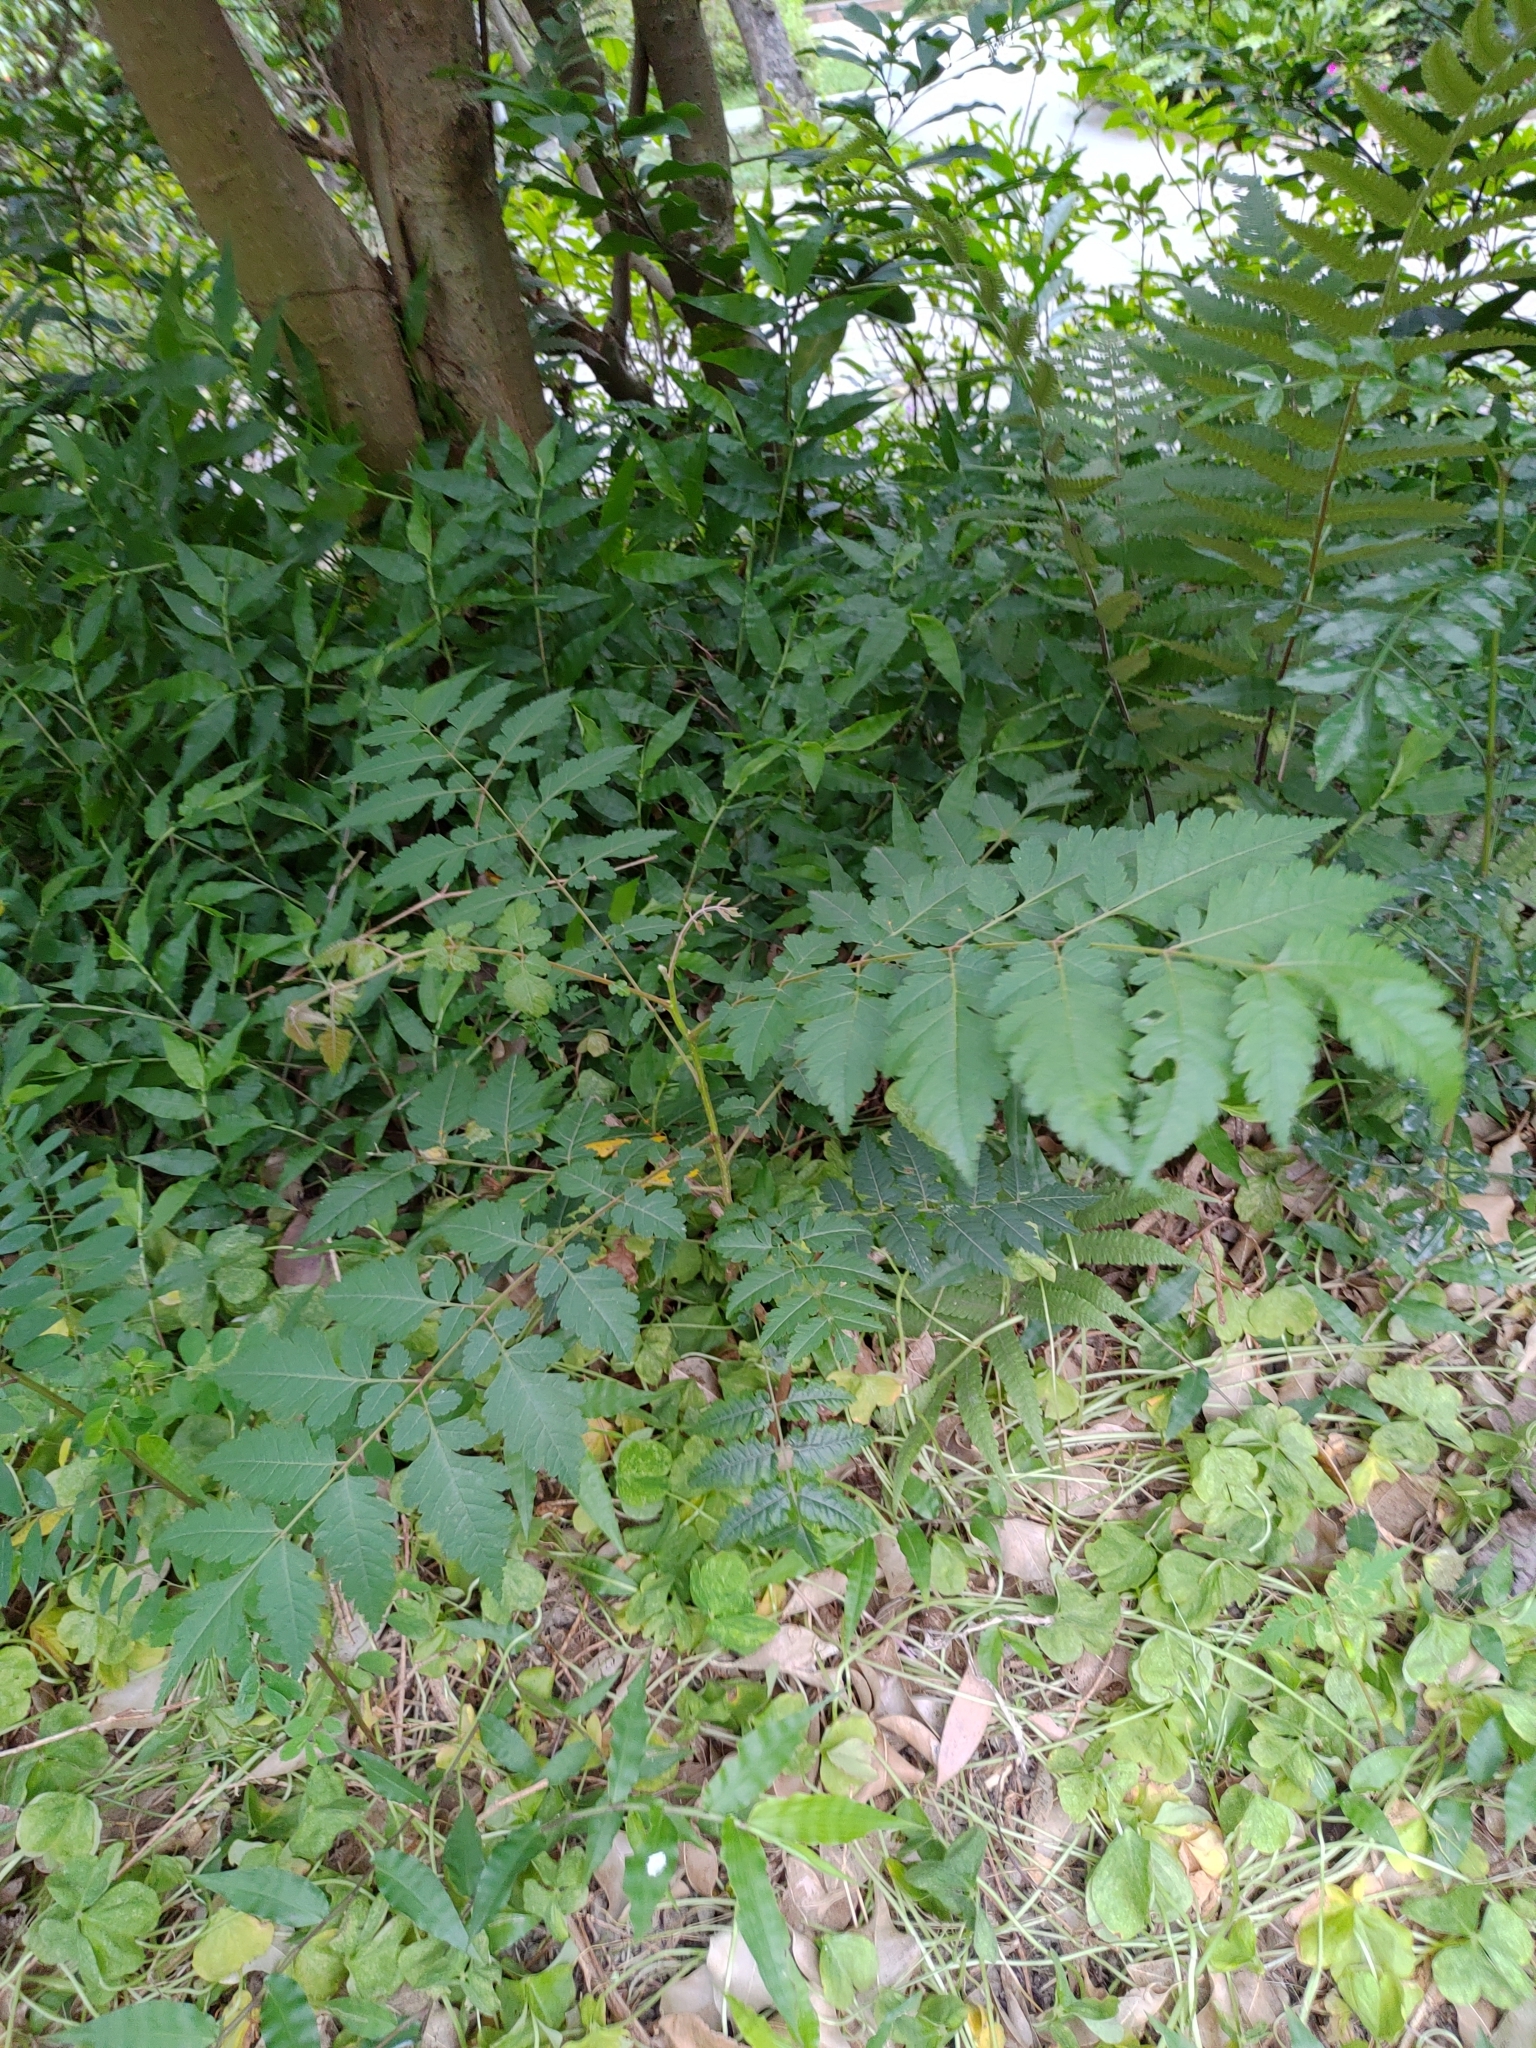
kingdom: Plantae
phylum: Tracheophyta
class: Magnoliopsida
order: Sapindales
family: Sapindaceae
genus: Koelreuteria
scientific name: Koelreuteria elegans
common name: Chinese flame tree
